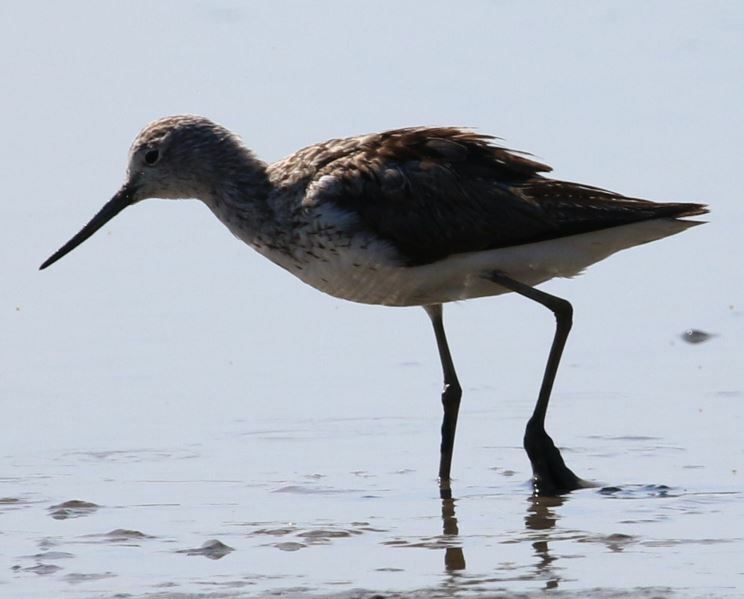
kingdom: Animalia
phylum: Chordata
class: Aves
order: Charadriiformes
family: Scolopacidae
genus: Tringa
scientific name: Tringa nebularia
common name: Common greenshank
